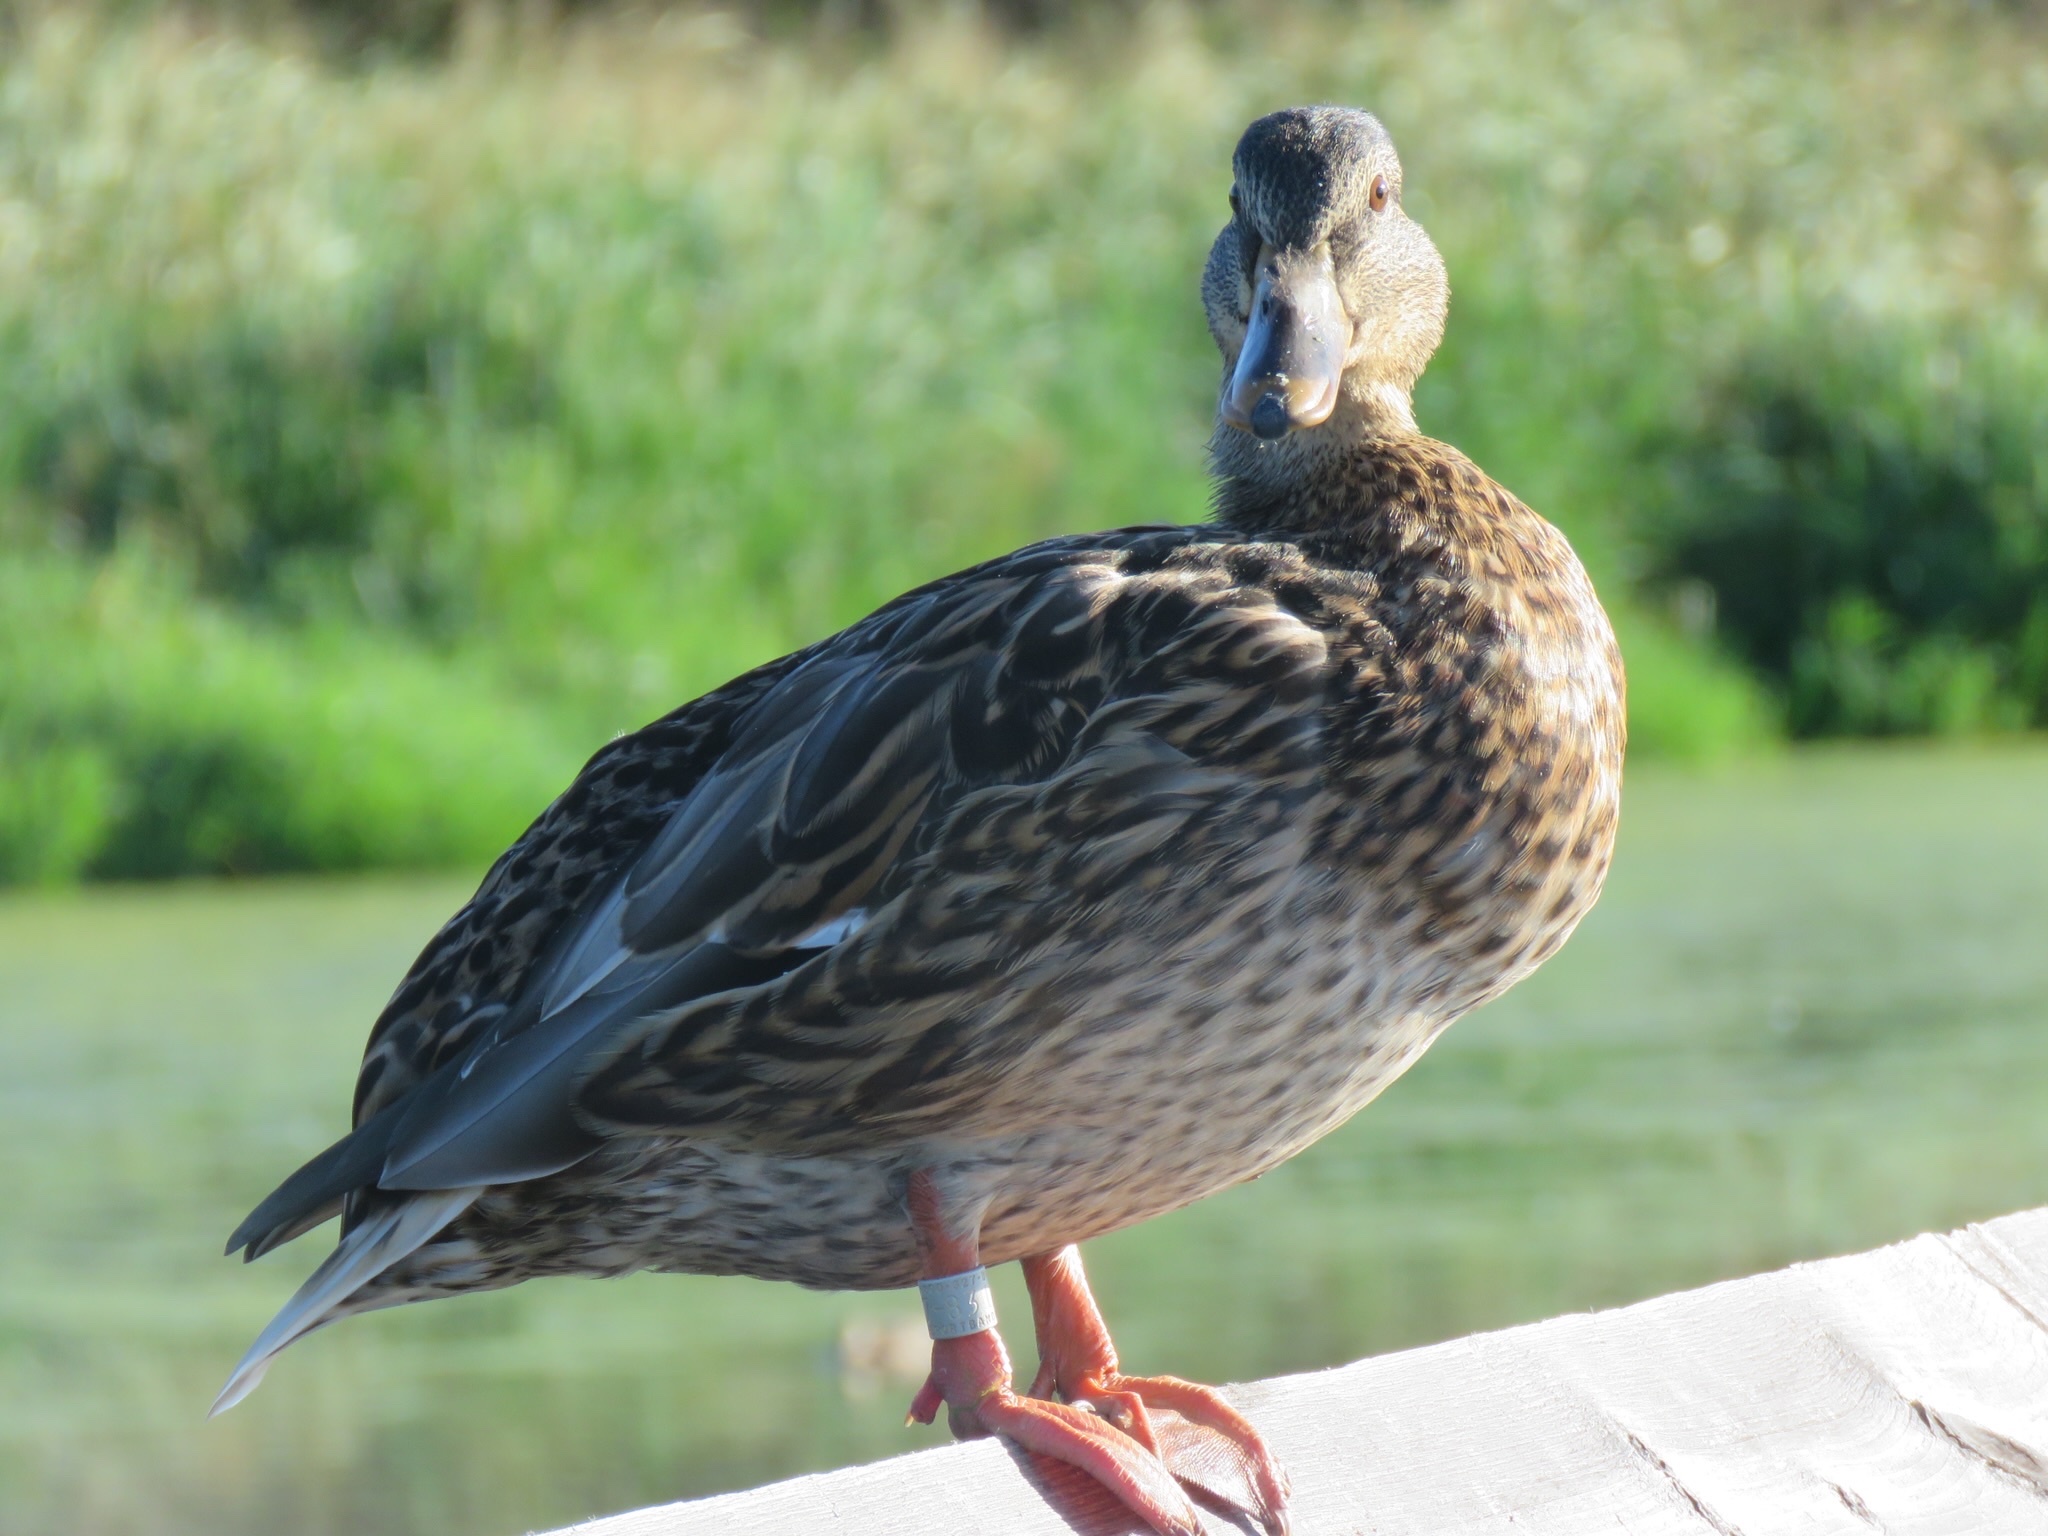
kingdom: Animalia
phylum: Chordata
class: Aves
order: Anseriformes
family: Anatidae
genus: Anas
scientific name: Anas platyrhynchos
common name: Mallard
